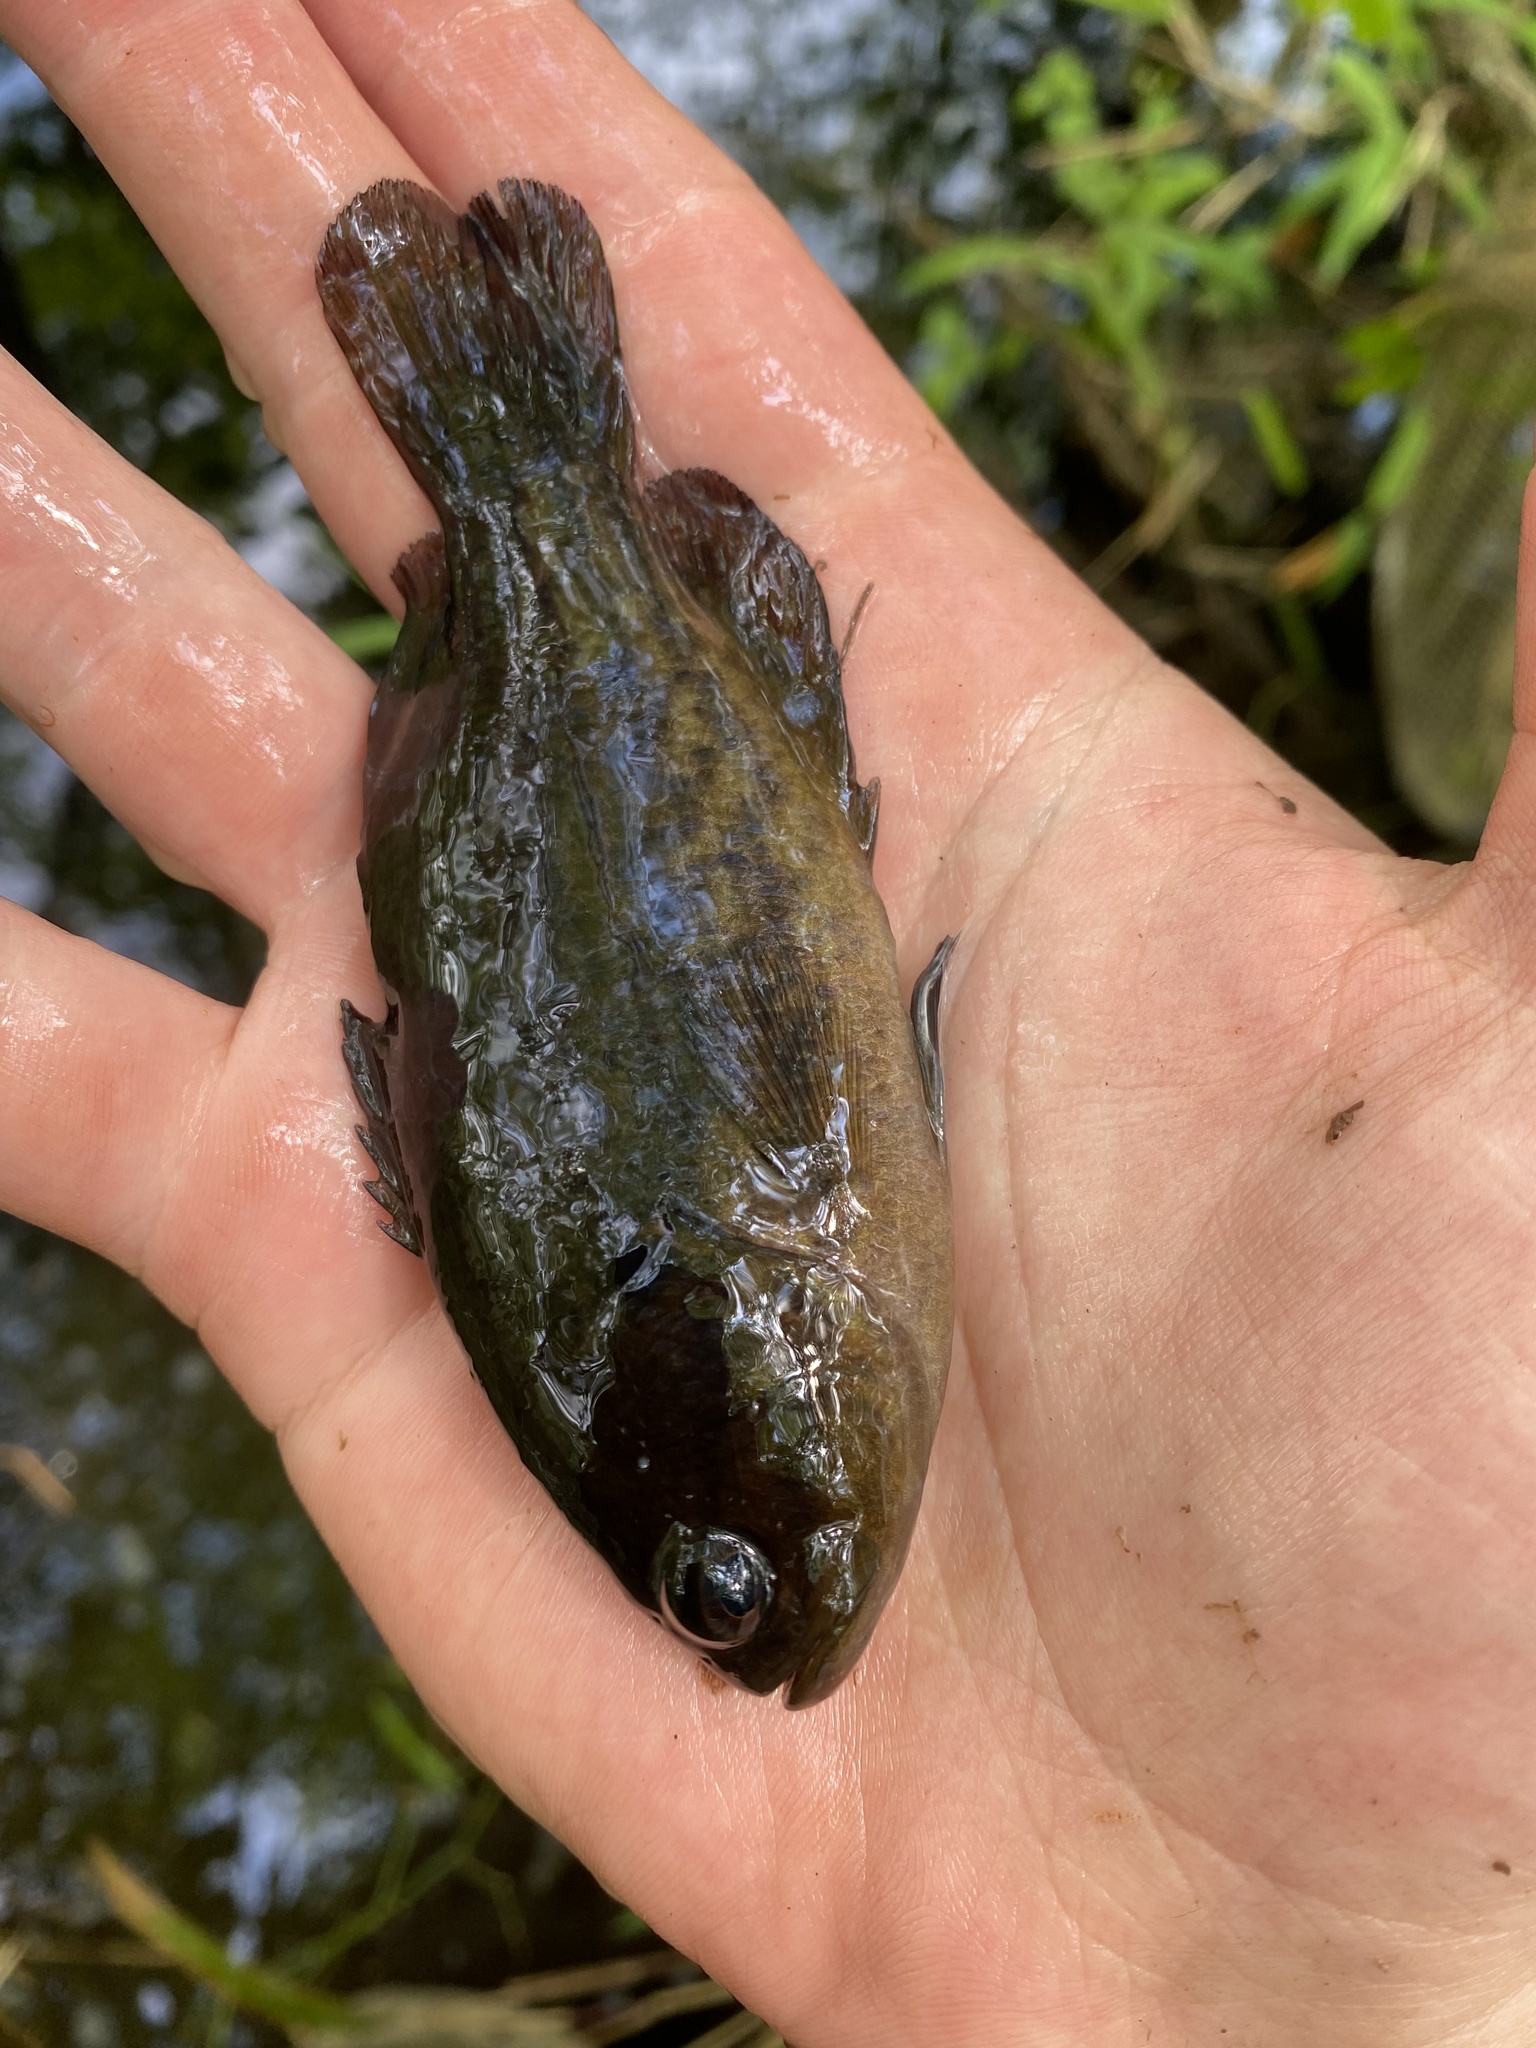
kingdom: Animalia
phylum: Chordata
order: Perciformes
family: Centrarchidae
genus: Acantharchus
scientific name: Acantharchus pomotis
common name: Mud sunfish
